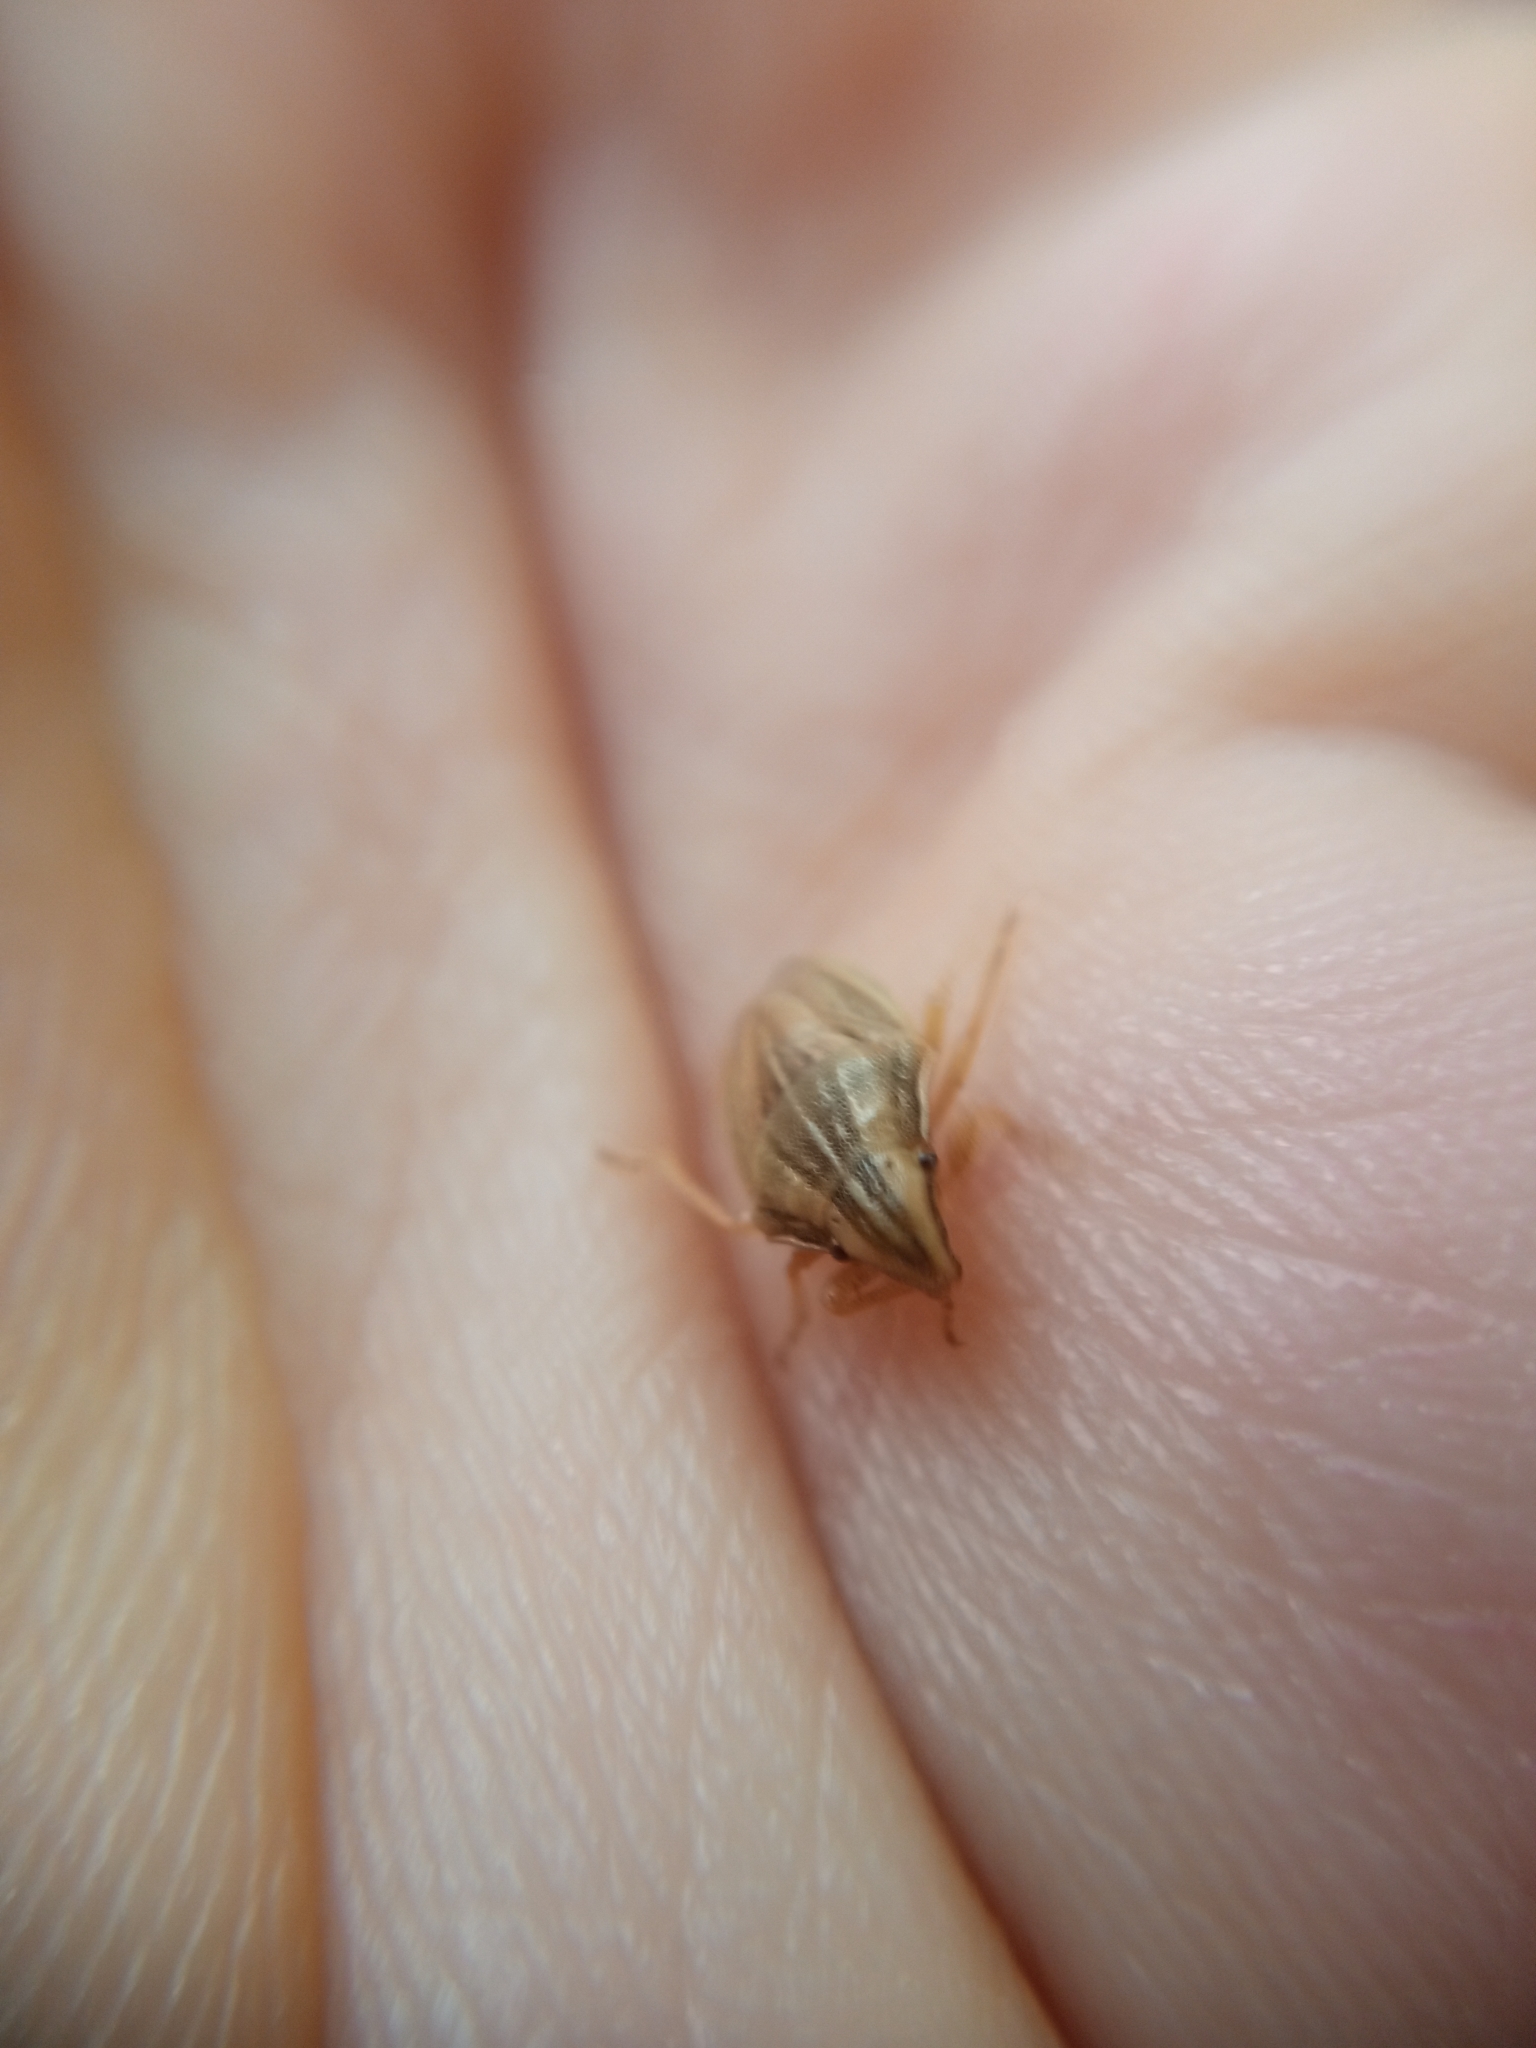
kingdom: Animalia
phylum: Arthropoda
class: Insecta
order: Hemiptera
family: Pentatomidae
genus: Aelia
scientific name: Aelia acuminata
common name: Bishop's mitre
